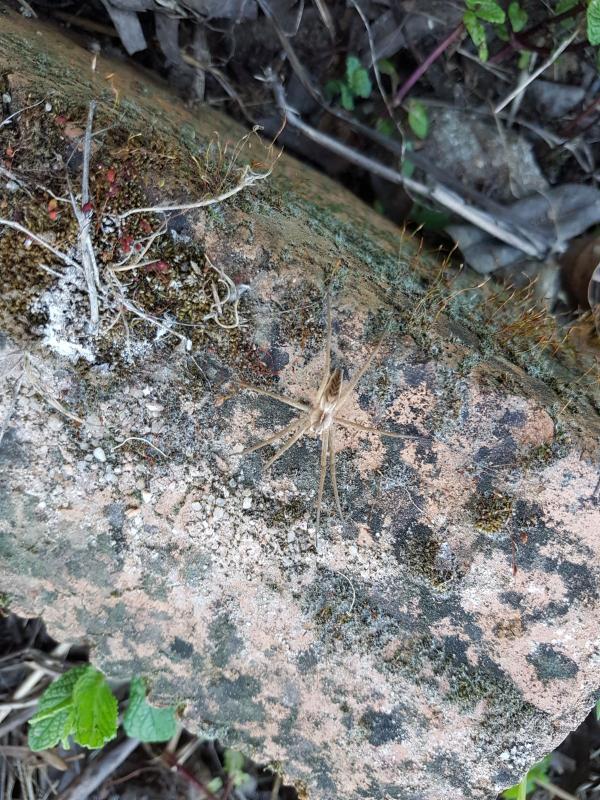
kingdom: Animalia
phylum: Arthropoda
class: Arachnida
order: Araneae
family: Pisauridae
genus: Pisaura
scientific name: Pisaura mirabilis
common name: Tent spider
